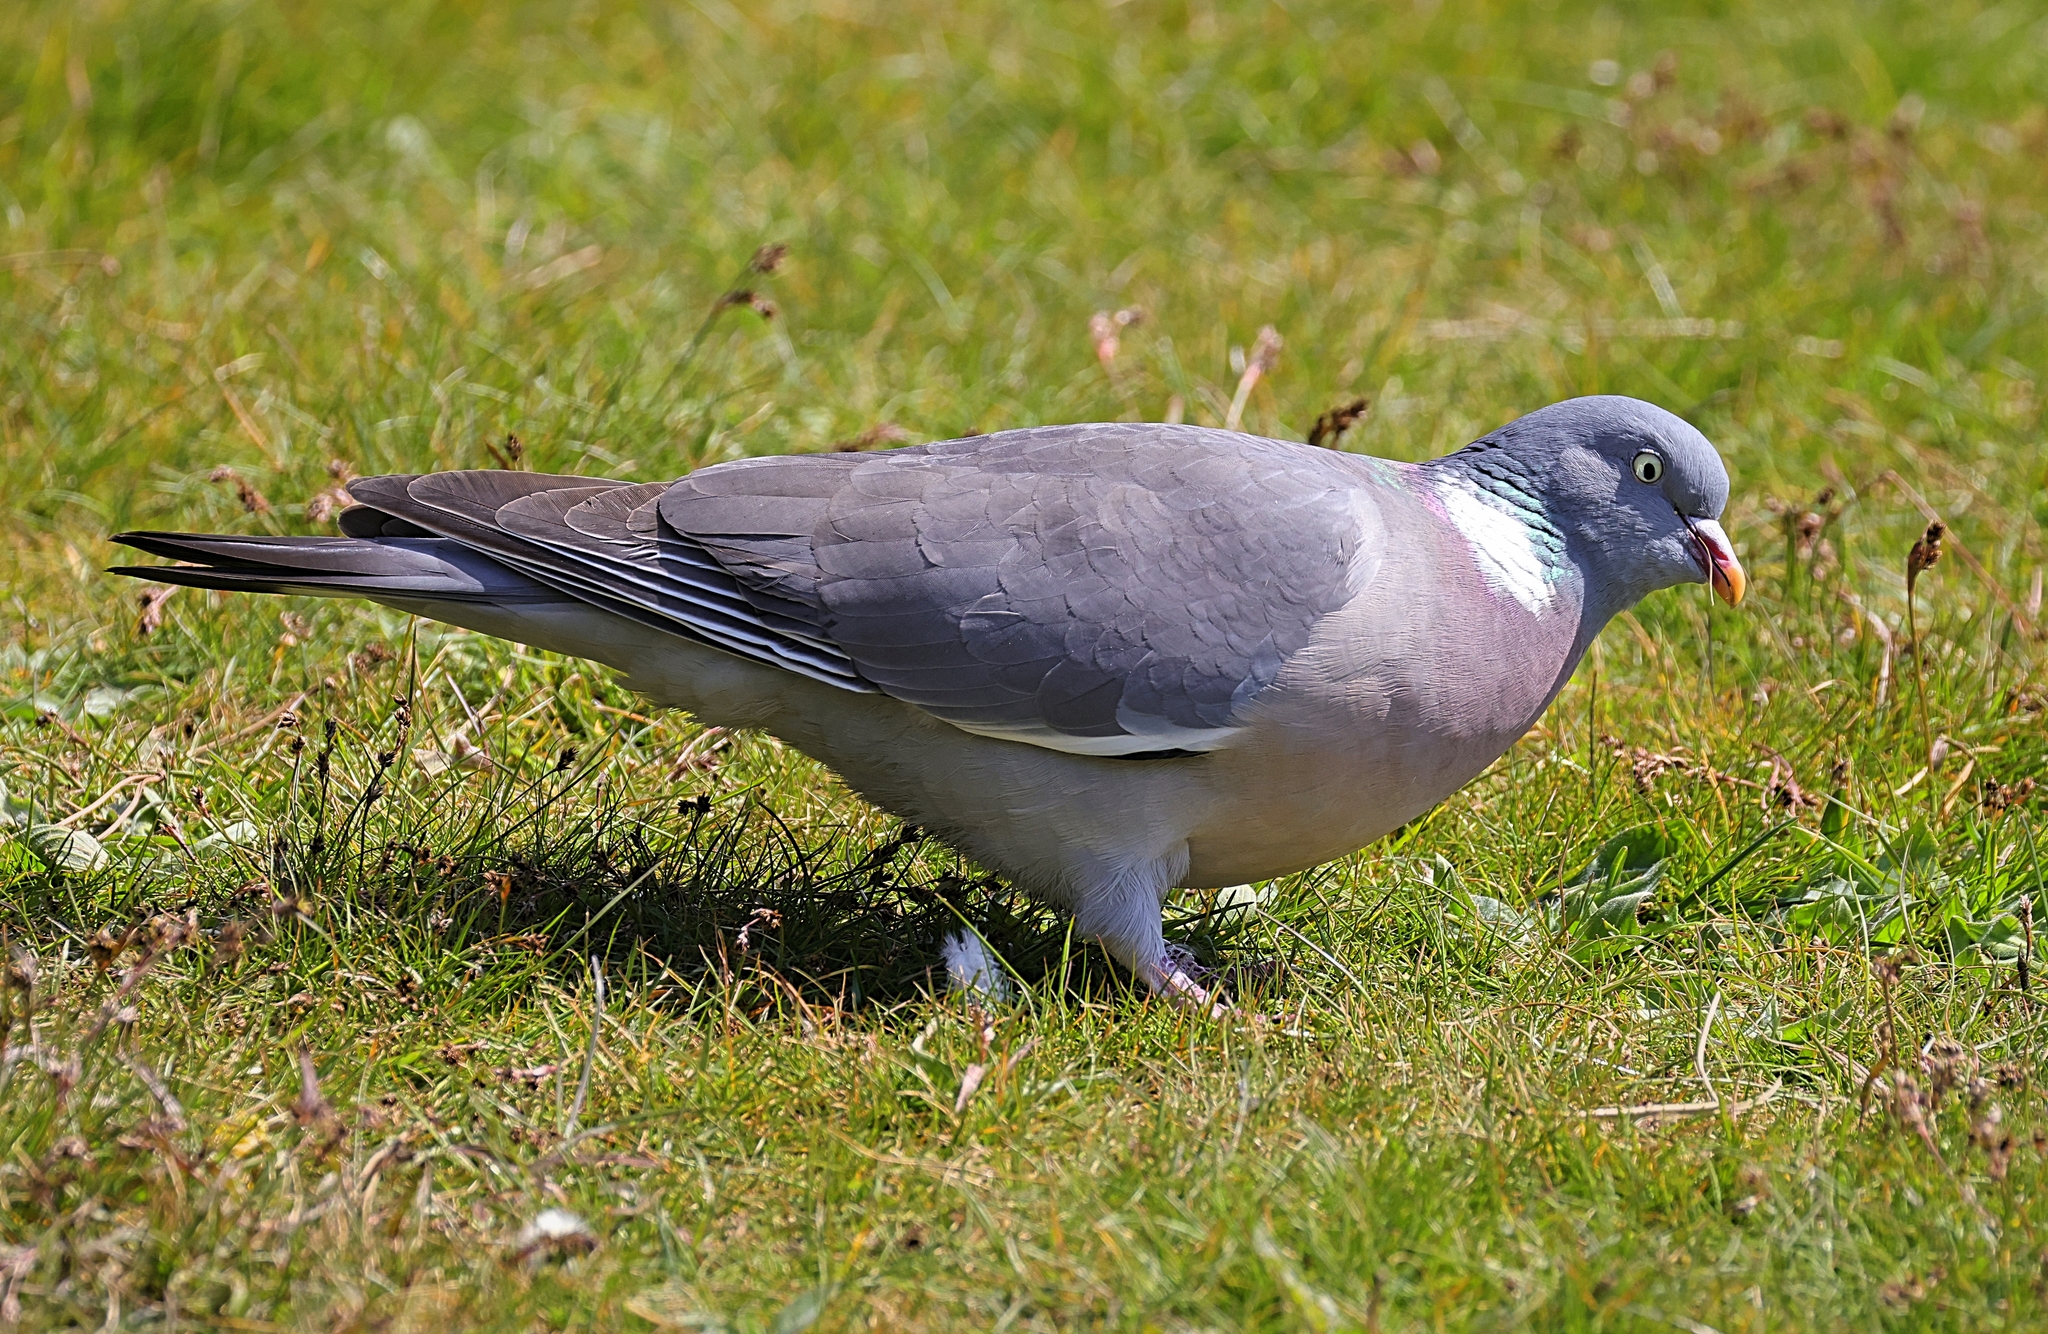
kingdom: Animalia
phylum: Chordata
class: Aves
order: Columbiformes
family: Columbidae
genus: Columba
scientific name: Columba palumbus
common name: Common wood pigeon
